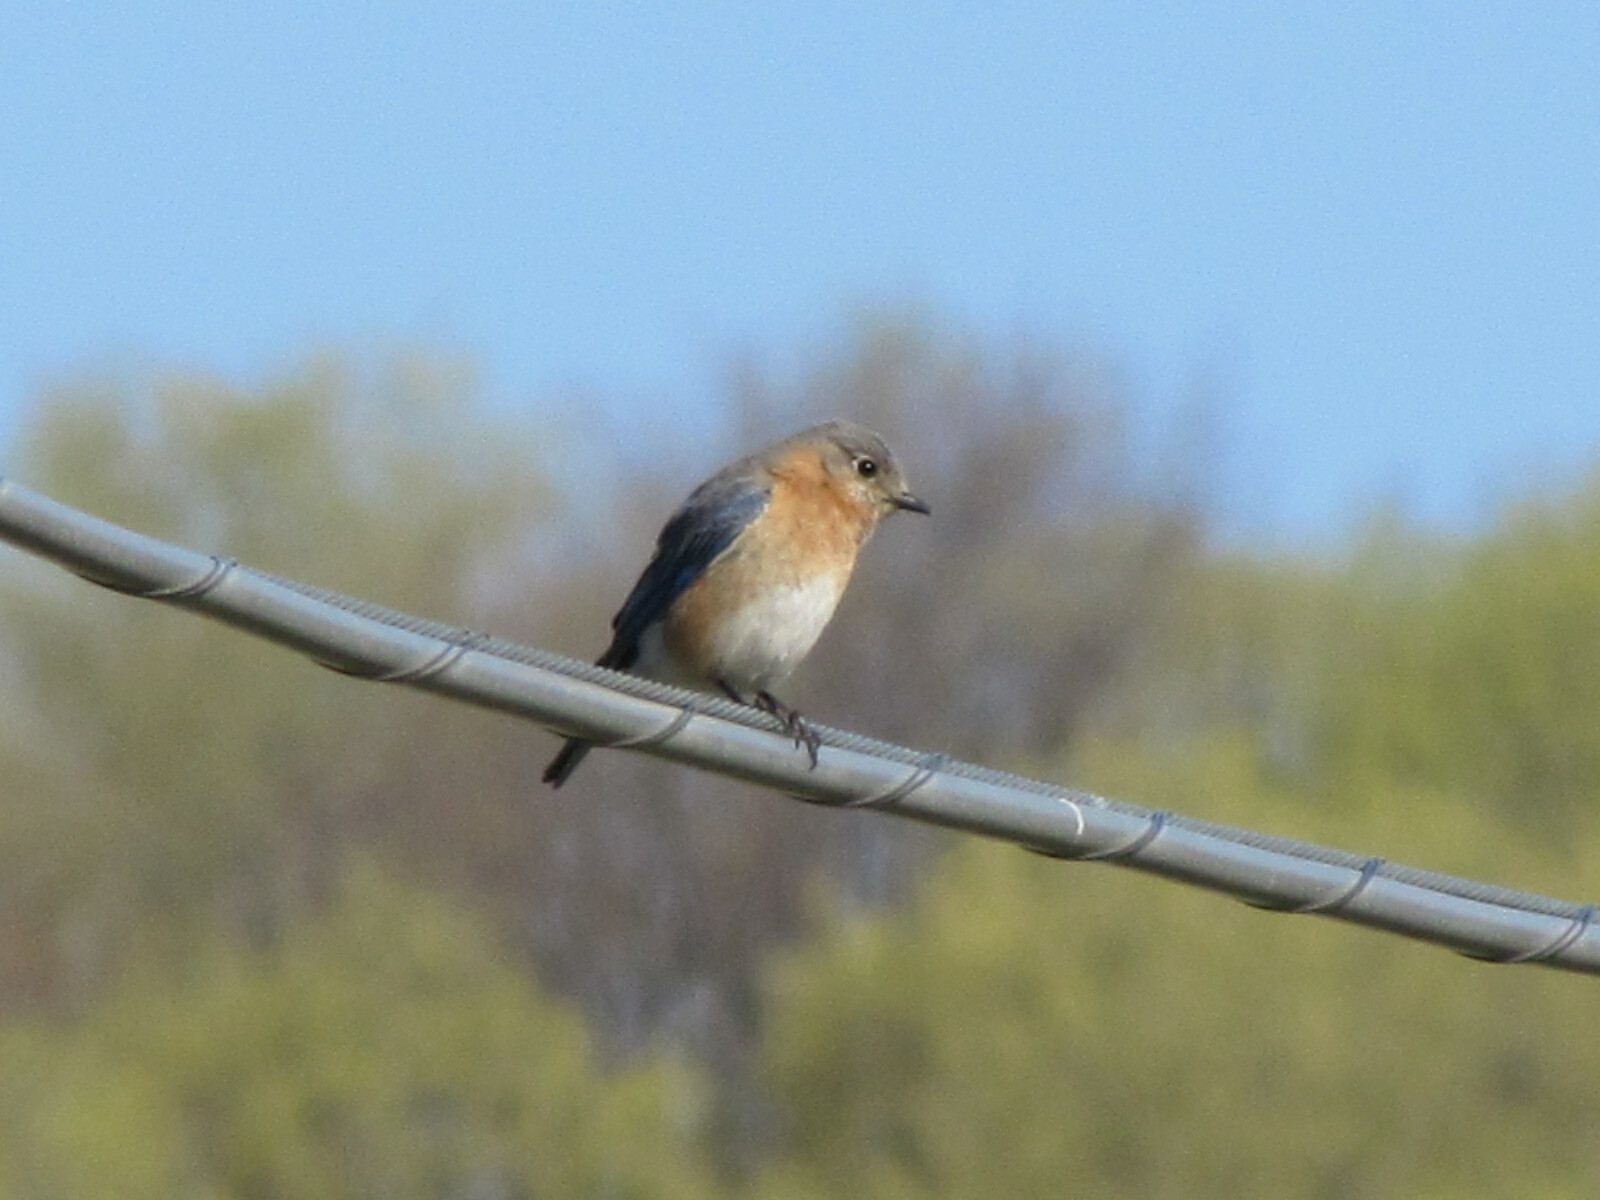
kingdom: Animalia
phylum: Chordata
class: Aves
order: Passeriformes
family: Turdidae
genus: Sialia
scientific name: Sialia sialis
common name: Eastern bluebird
